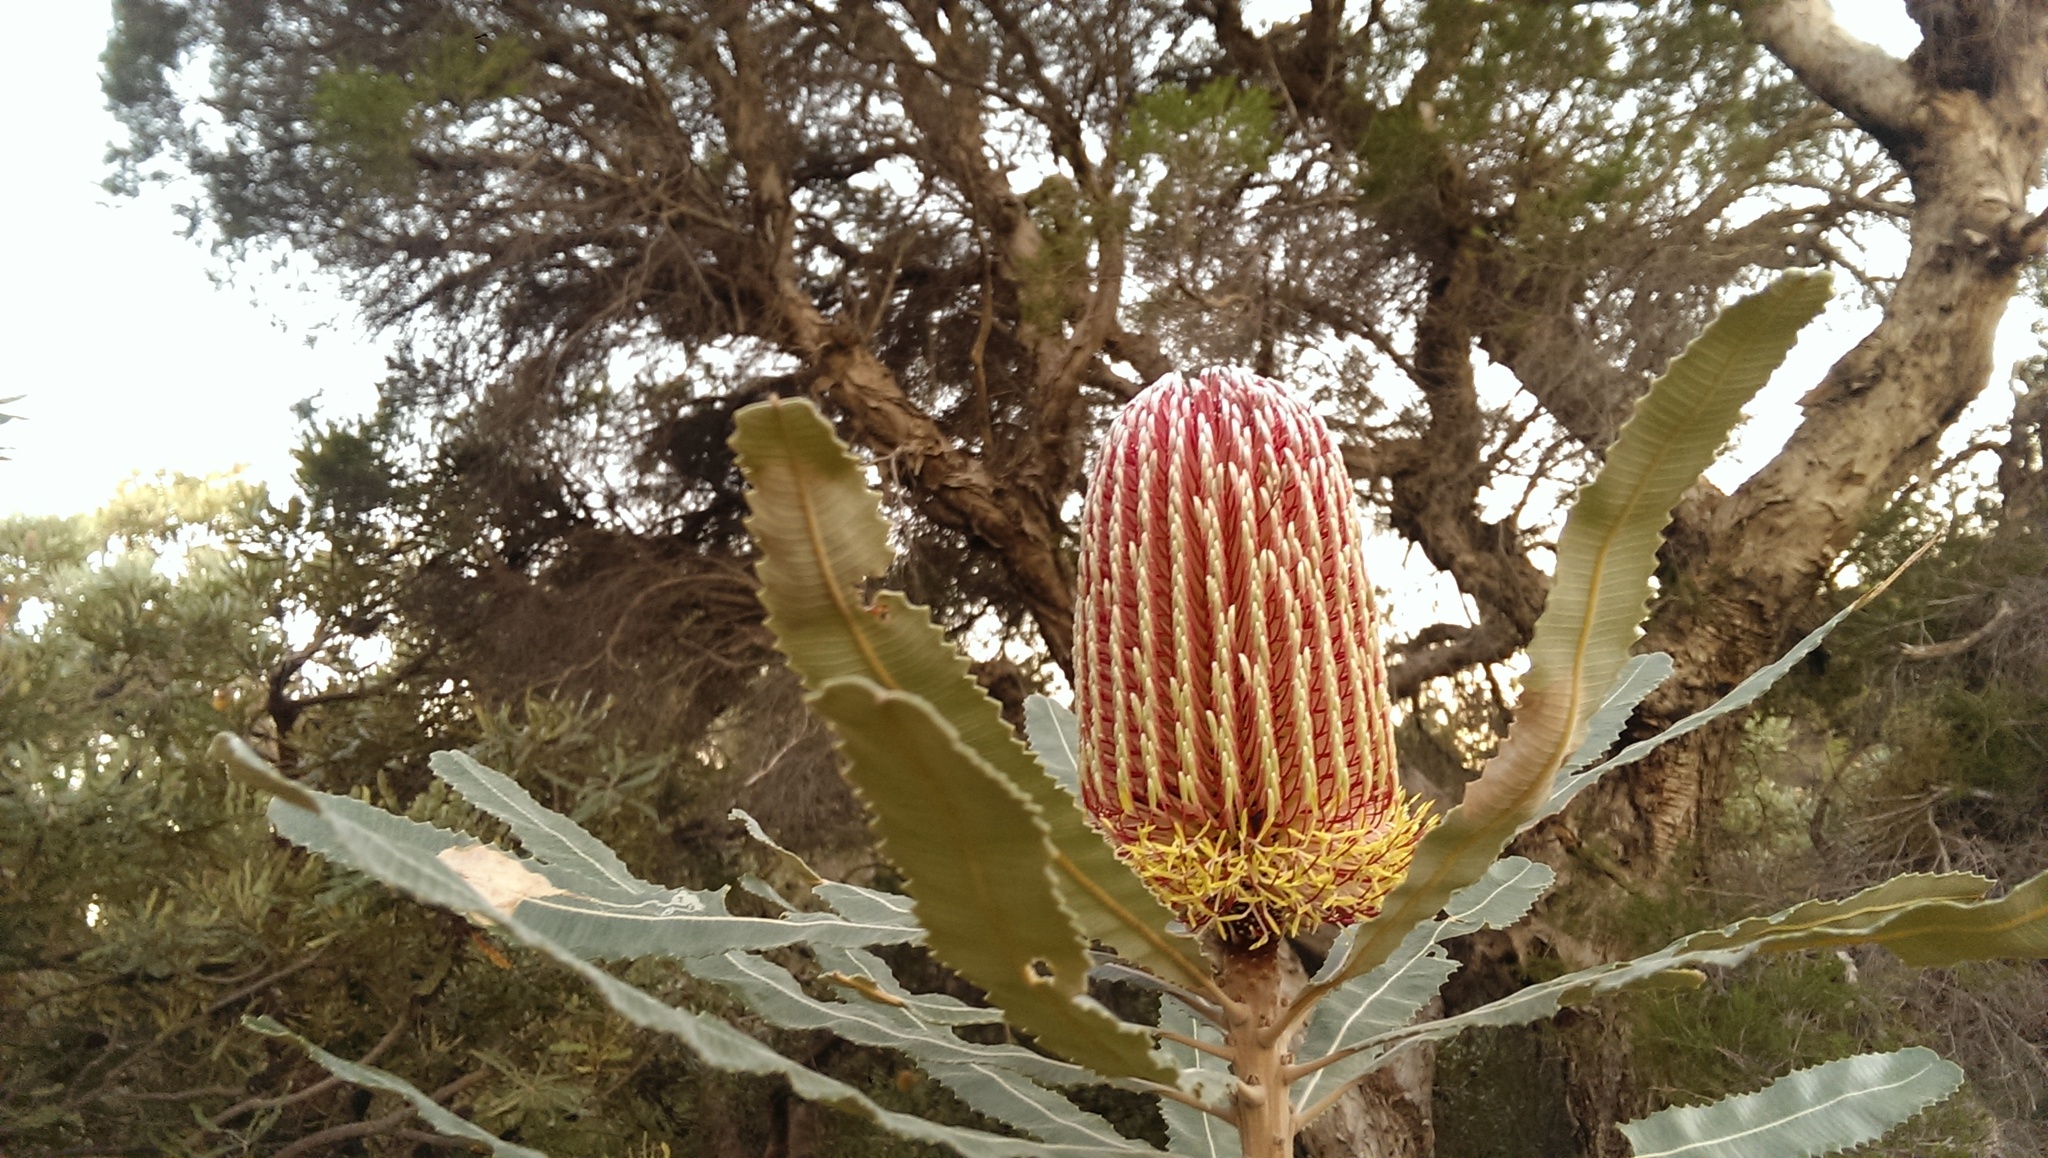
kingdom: Plantae
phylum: Tracheophyta
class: Magnoliopsida
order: Proteales
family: Proteaceae
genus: Banksia
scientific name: Banksia menziesii
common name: Menzie's banksia
